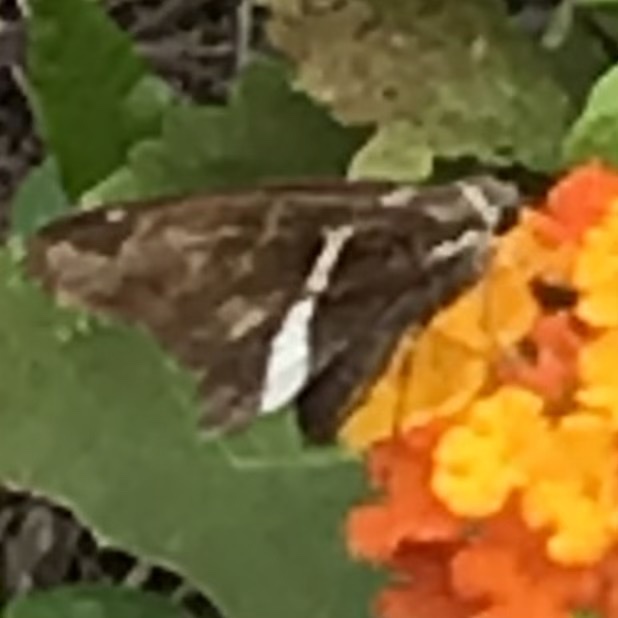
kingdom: Animalia
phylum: Arthropoda
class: Insecta
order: Lepidoptera
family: Hesperiidae
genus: Chioides
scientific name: Chioides catillus
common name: Silverbanded skipper
